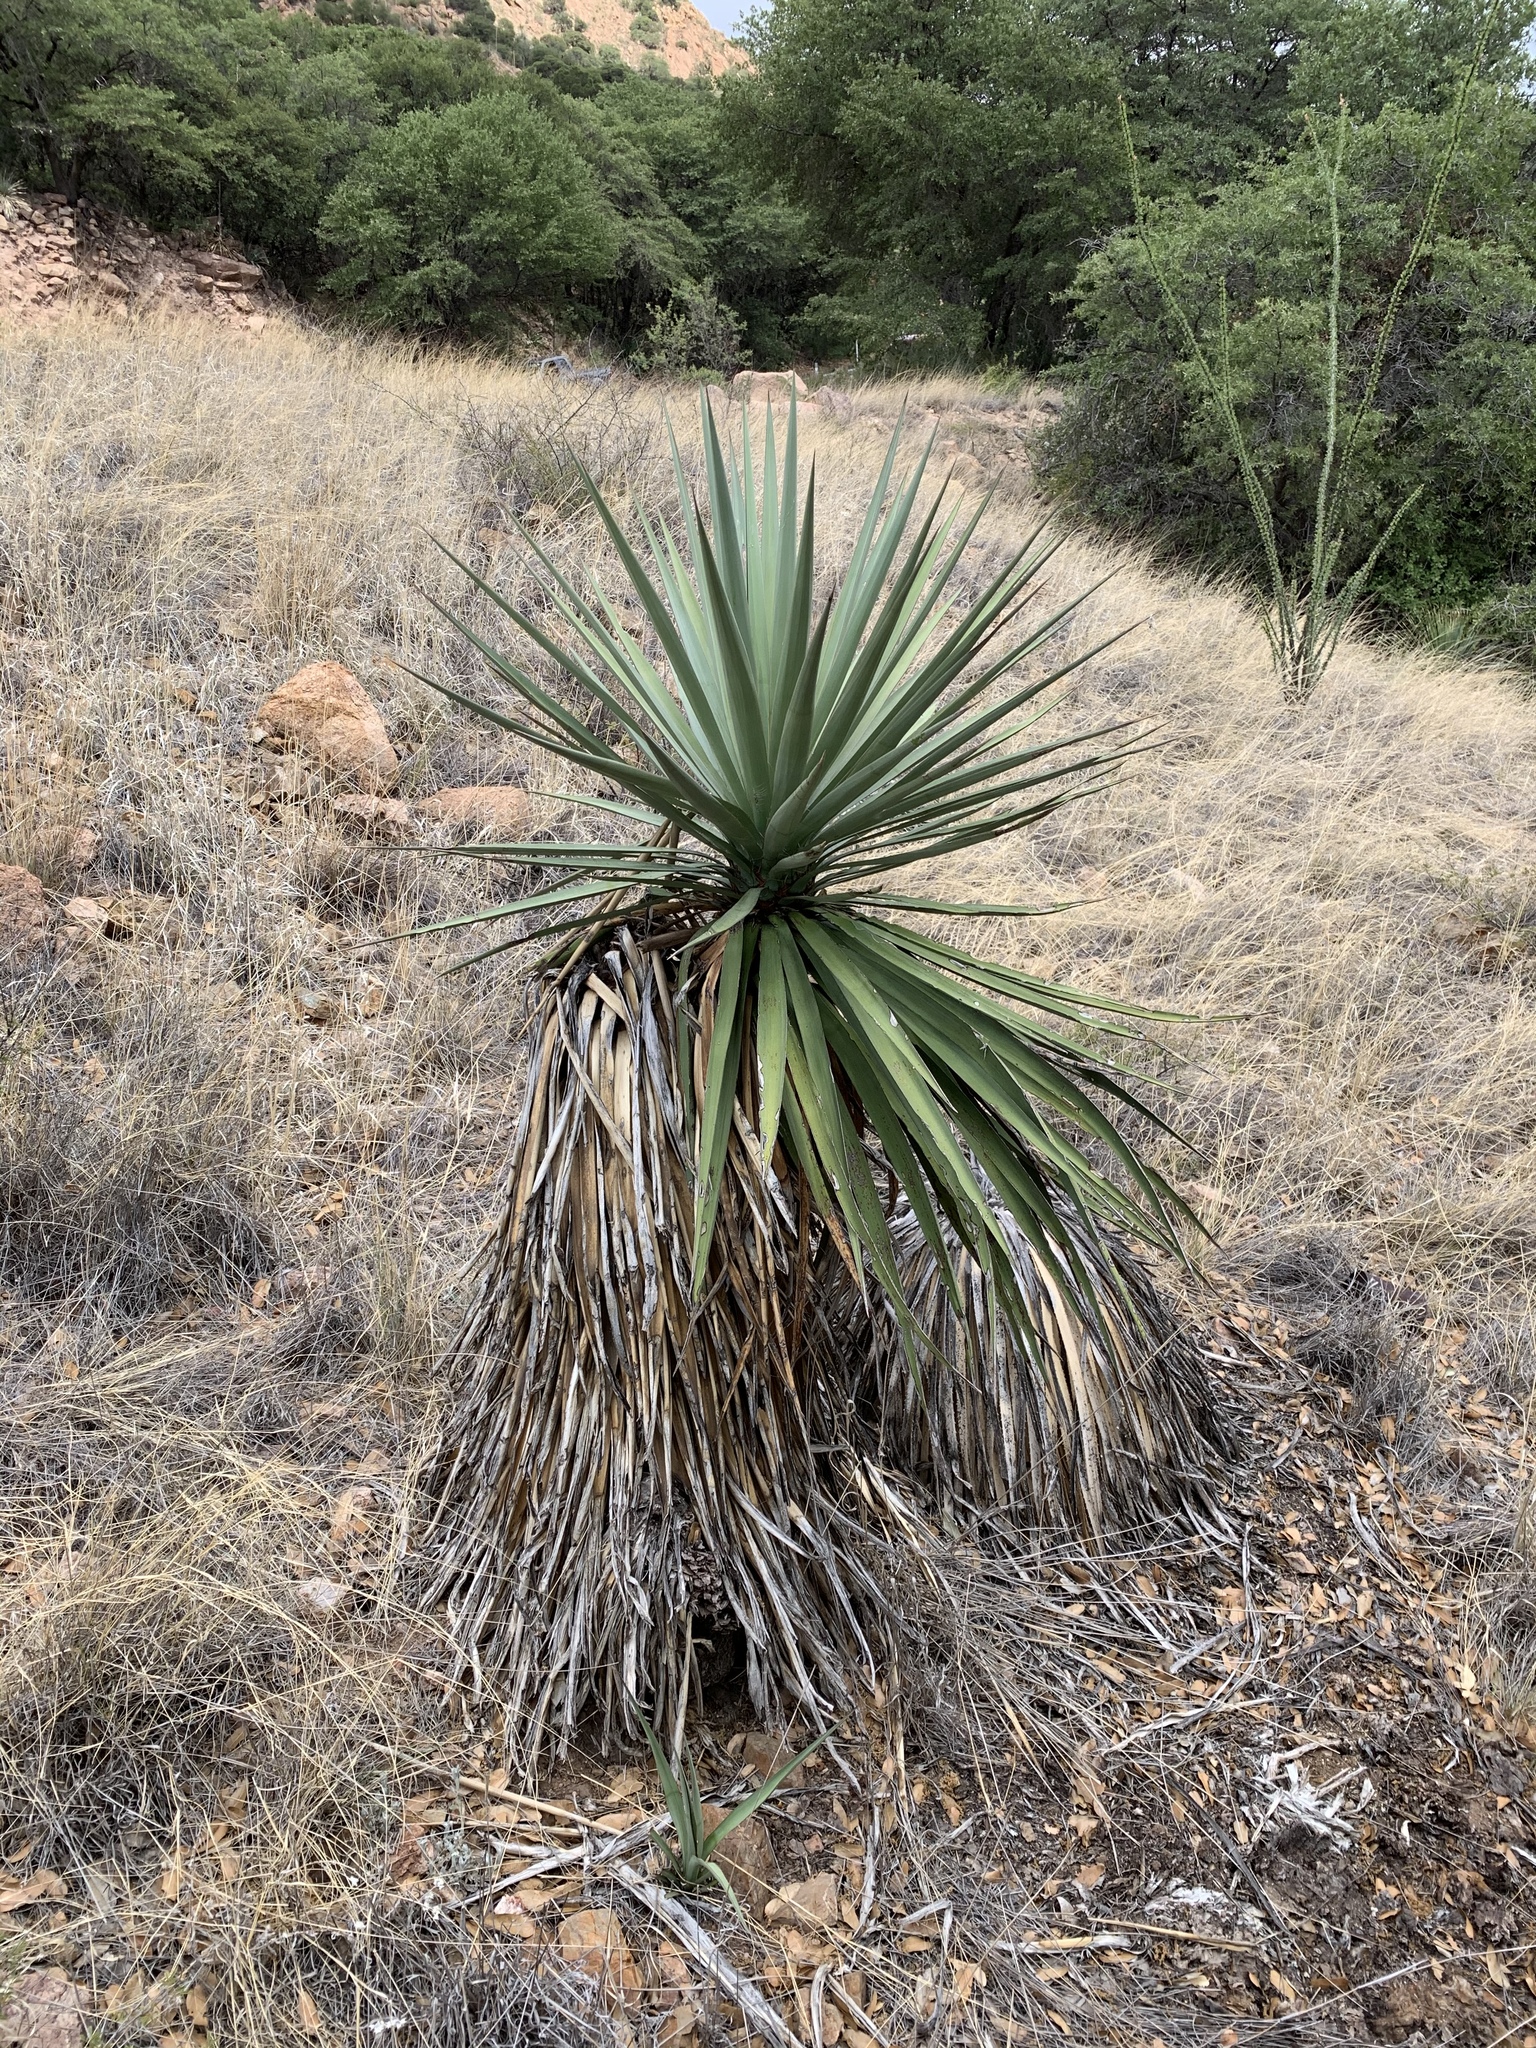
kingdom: Plantae
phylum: Tracheophyta
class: Liliopsida
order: Asparagales
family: Asparagaceae
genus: Yucca
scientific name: Yucca madrensis
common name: Hoary yucca
